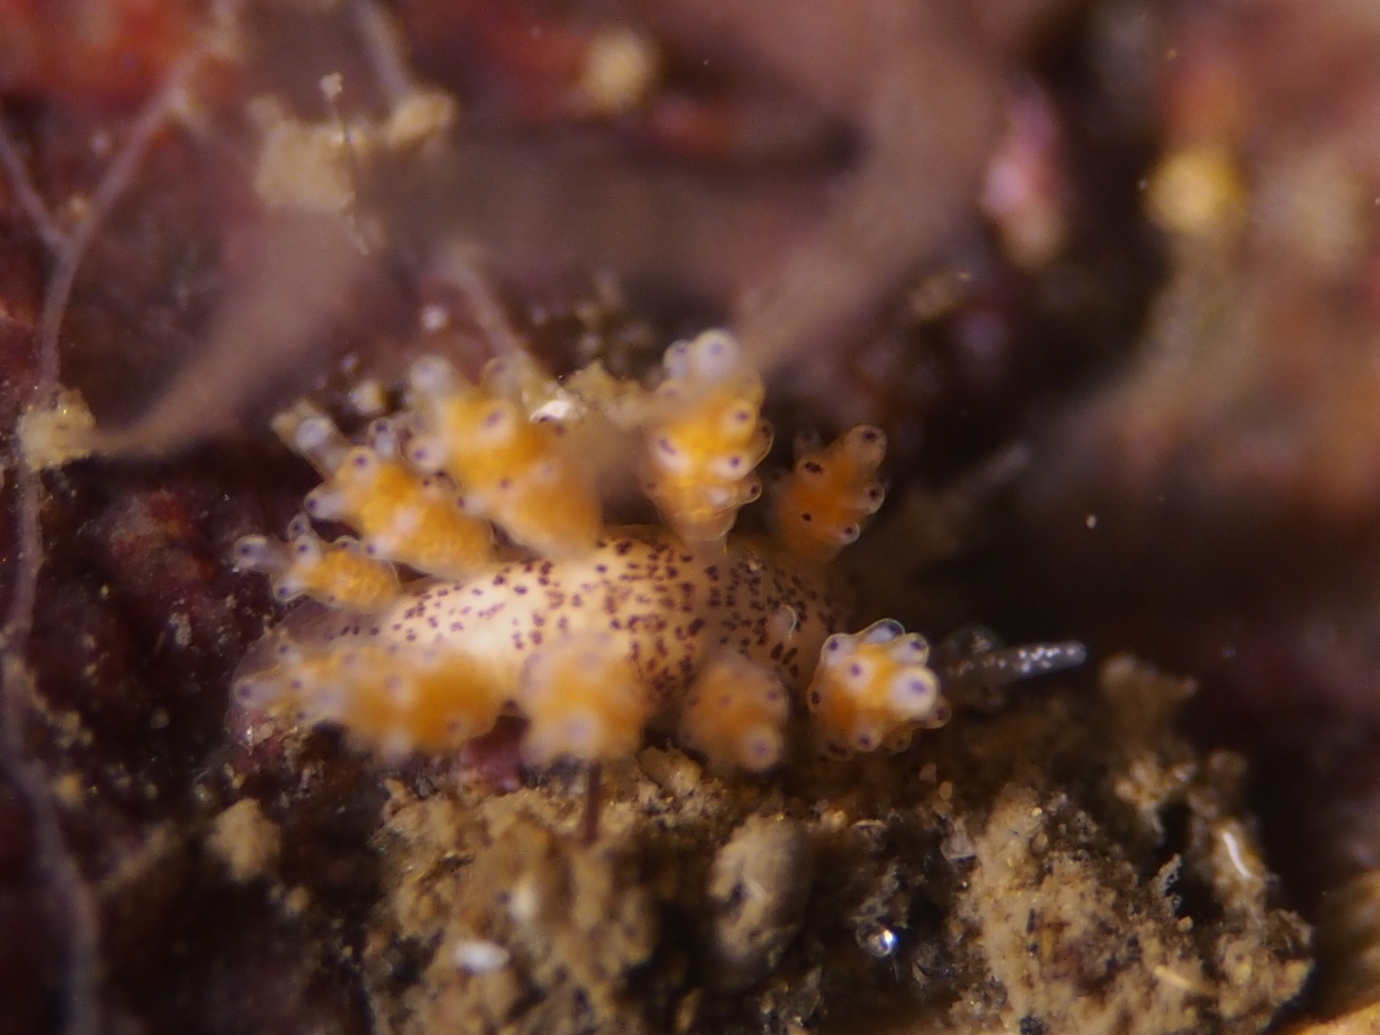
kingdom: Animalia
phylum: Mollusca
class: Gastropoda
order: Nudibranchia
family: Dotidae
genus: Doto
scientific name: Doto maculata
